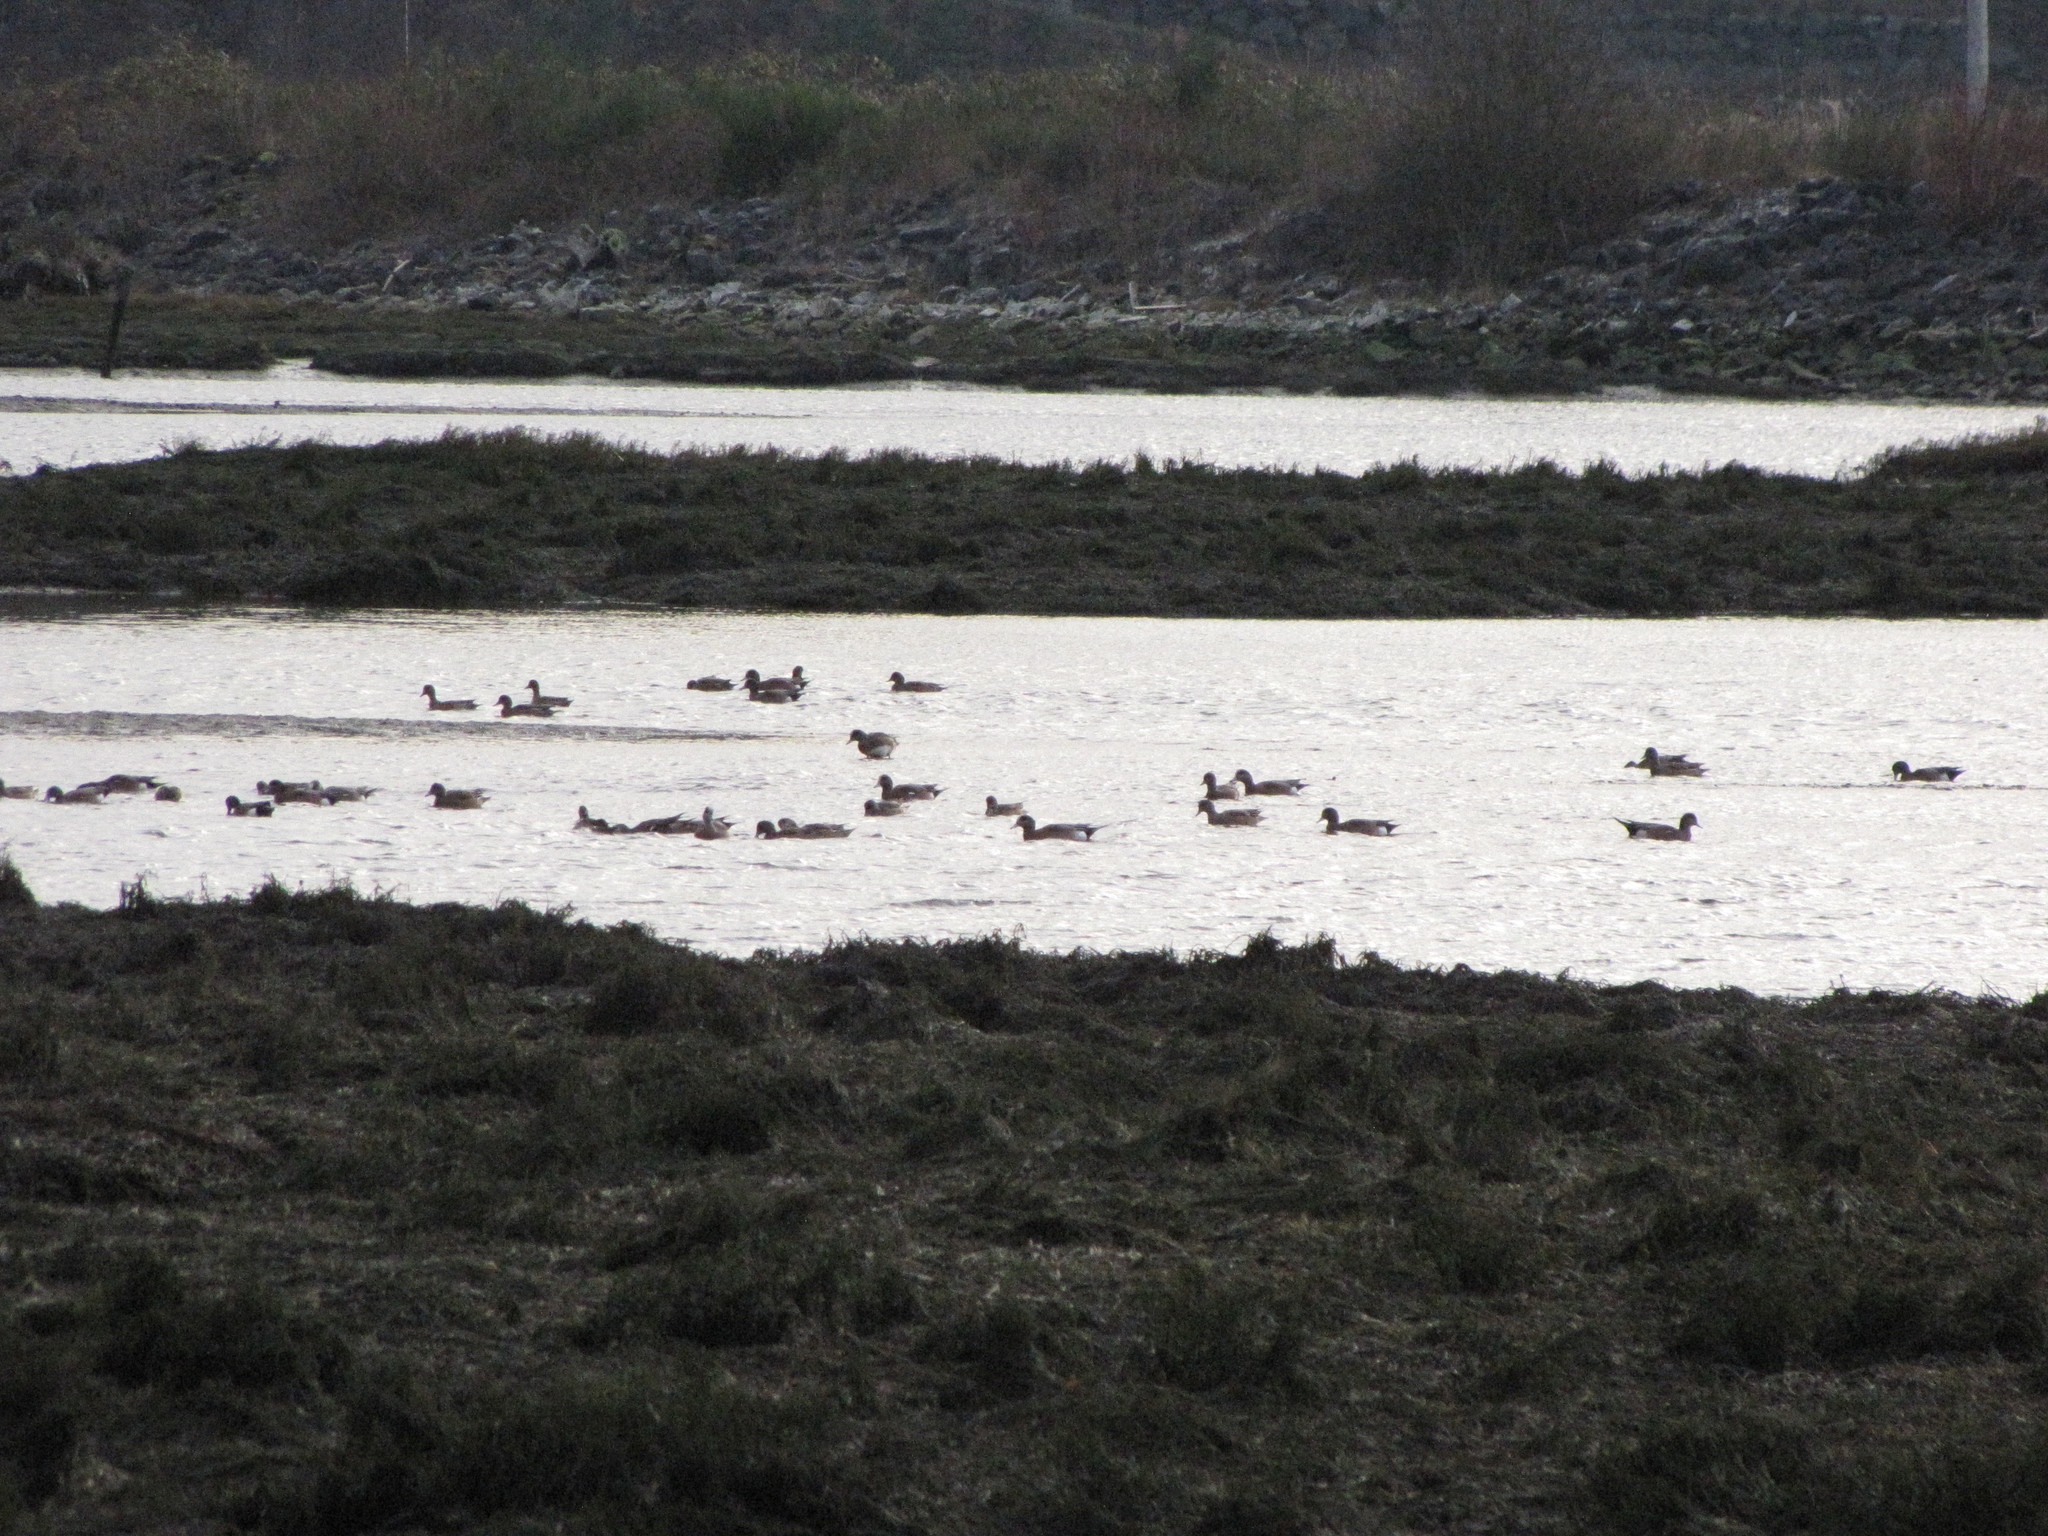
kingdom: Animalia
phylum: Chordata
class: Aves
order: Anseriformes
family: Anatidae
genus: Mareca
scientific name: Mareca americana
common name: American wigeon
